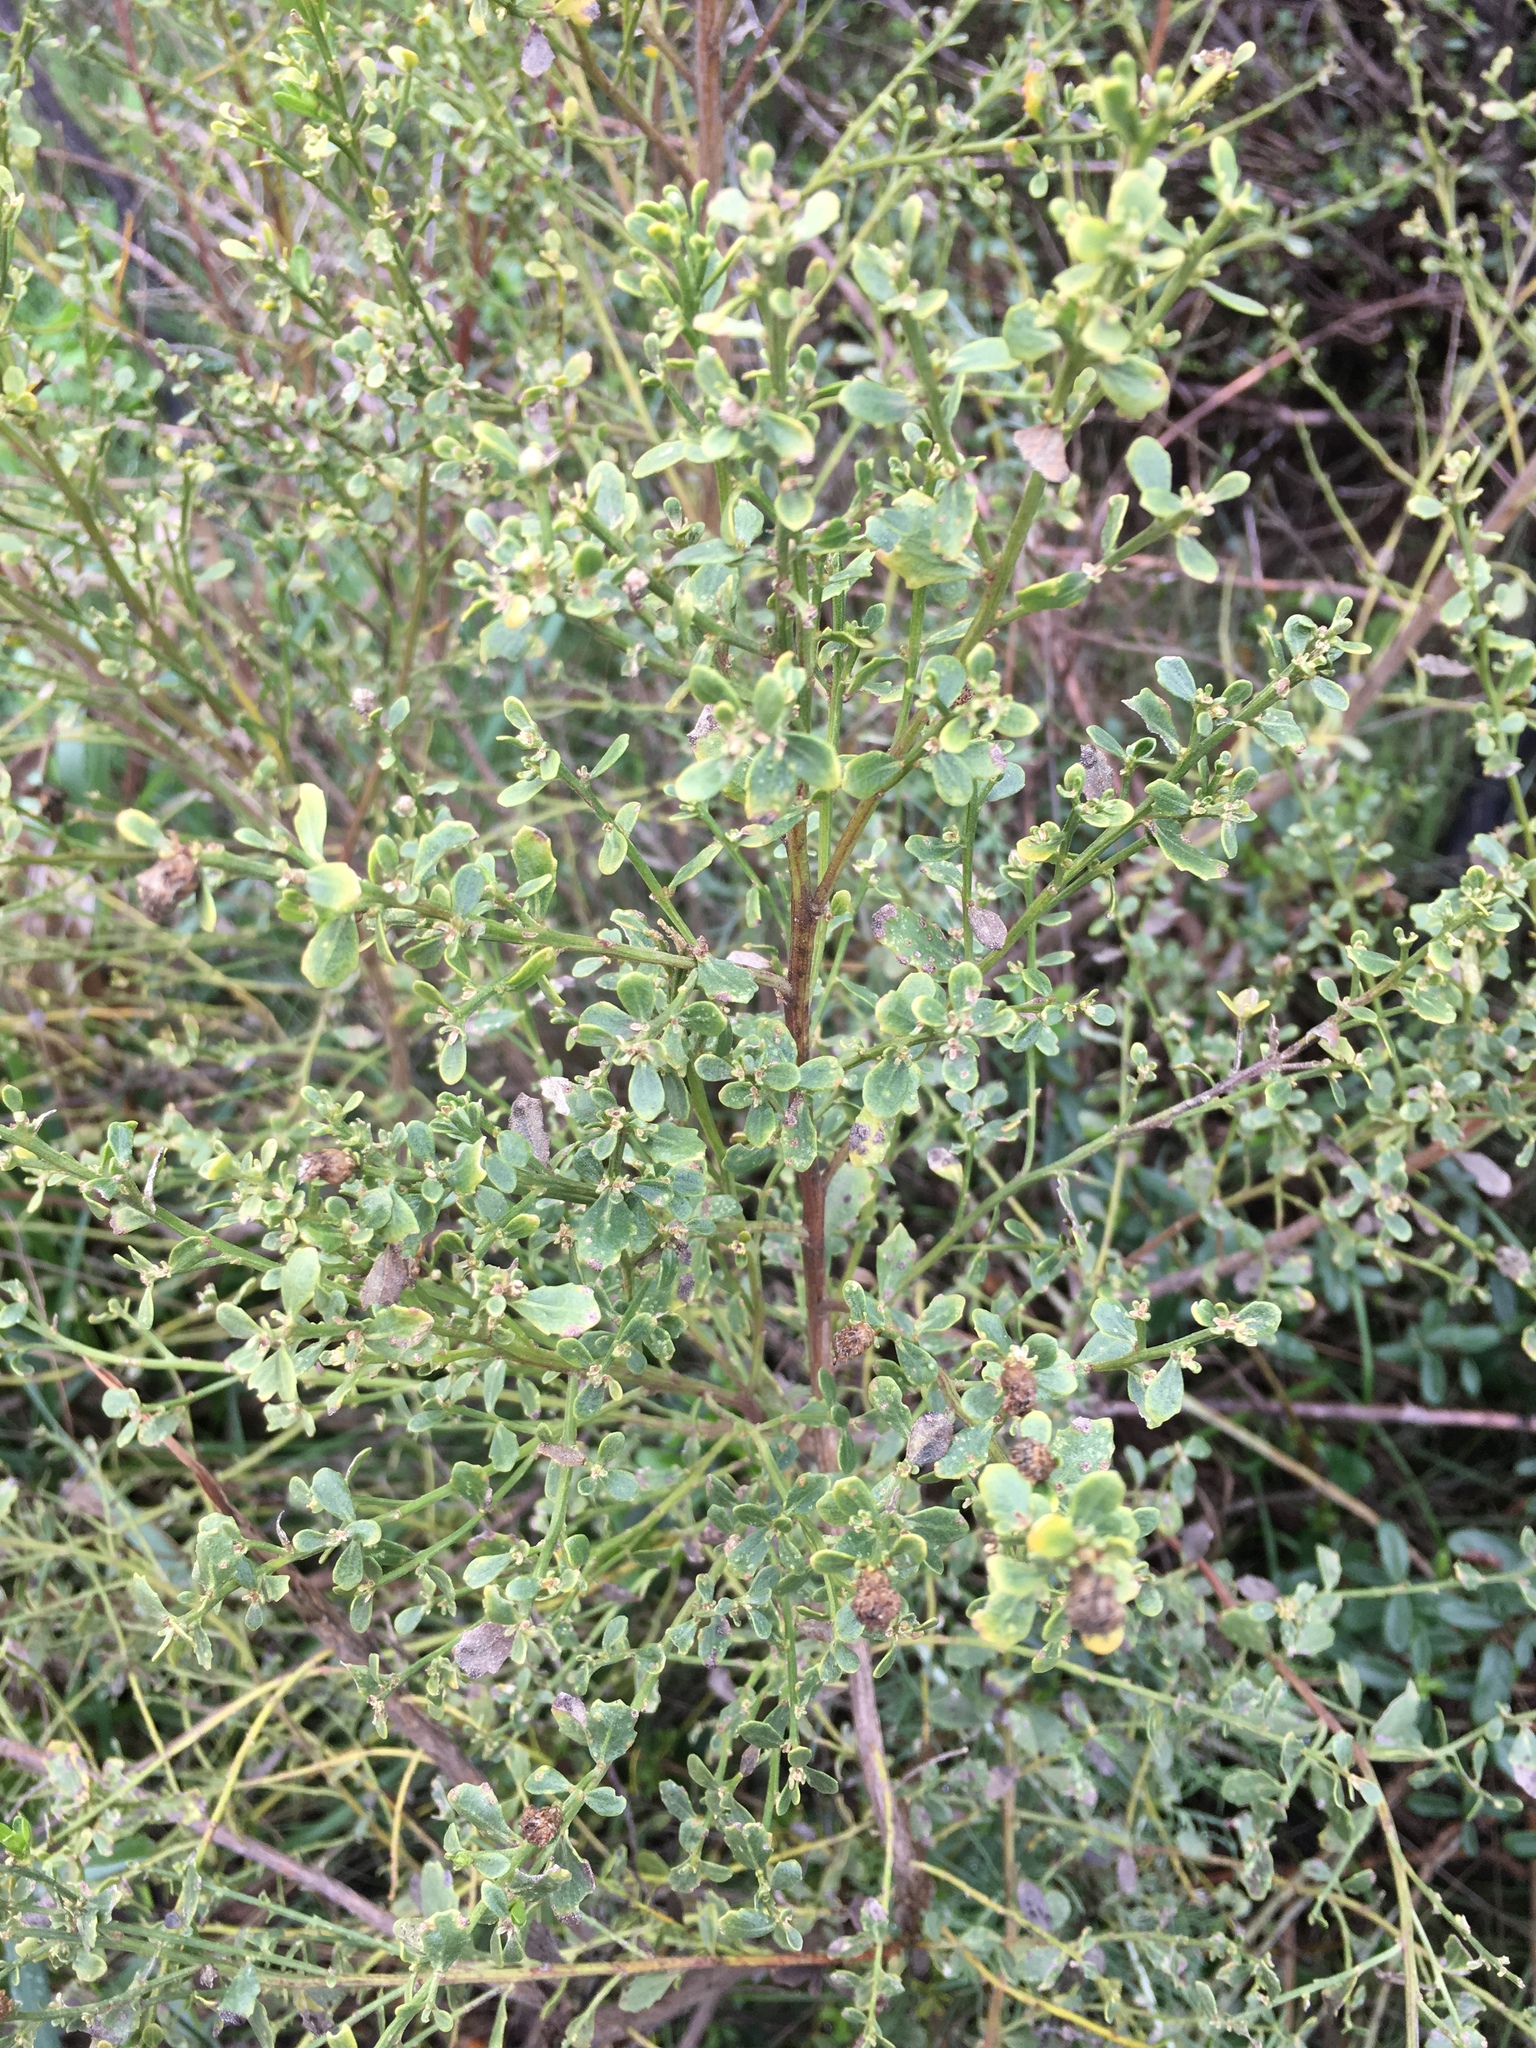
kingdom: Plantae
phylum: Tracheophyta
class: Magnoliopsida
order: Asterales
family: Asteraceae
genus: Baccharis
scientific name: Baccharis pilularis
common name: Coyotebrush
